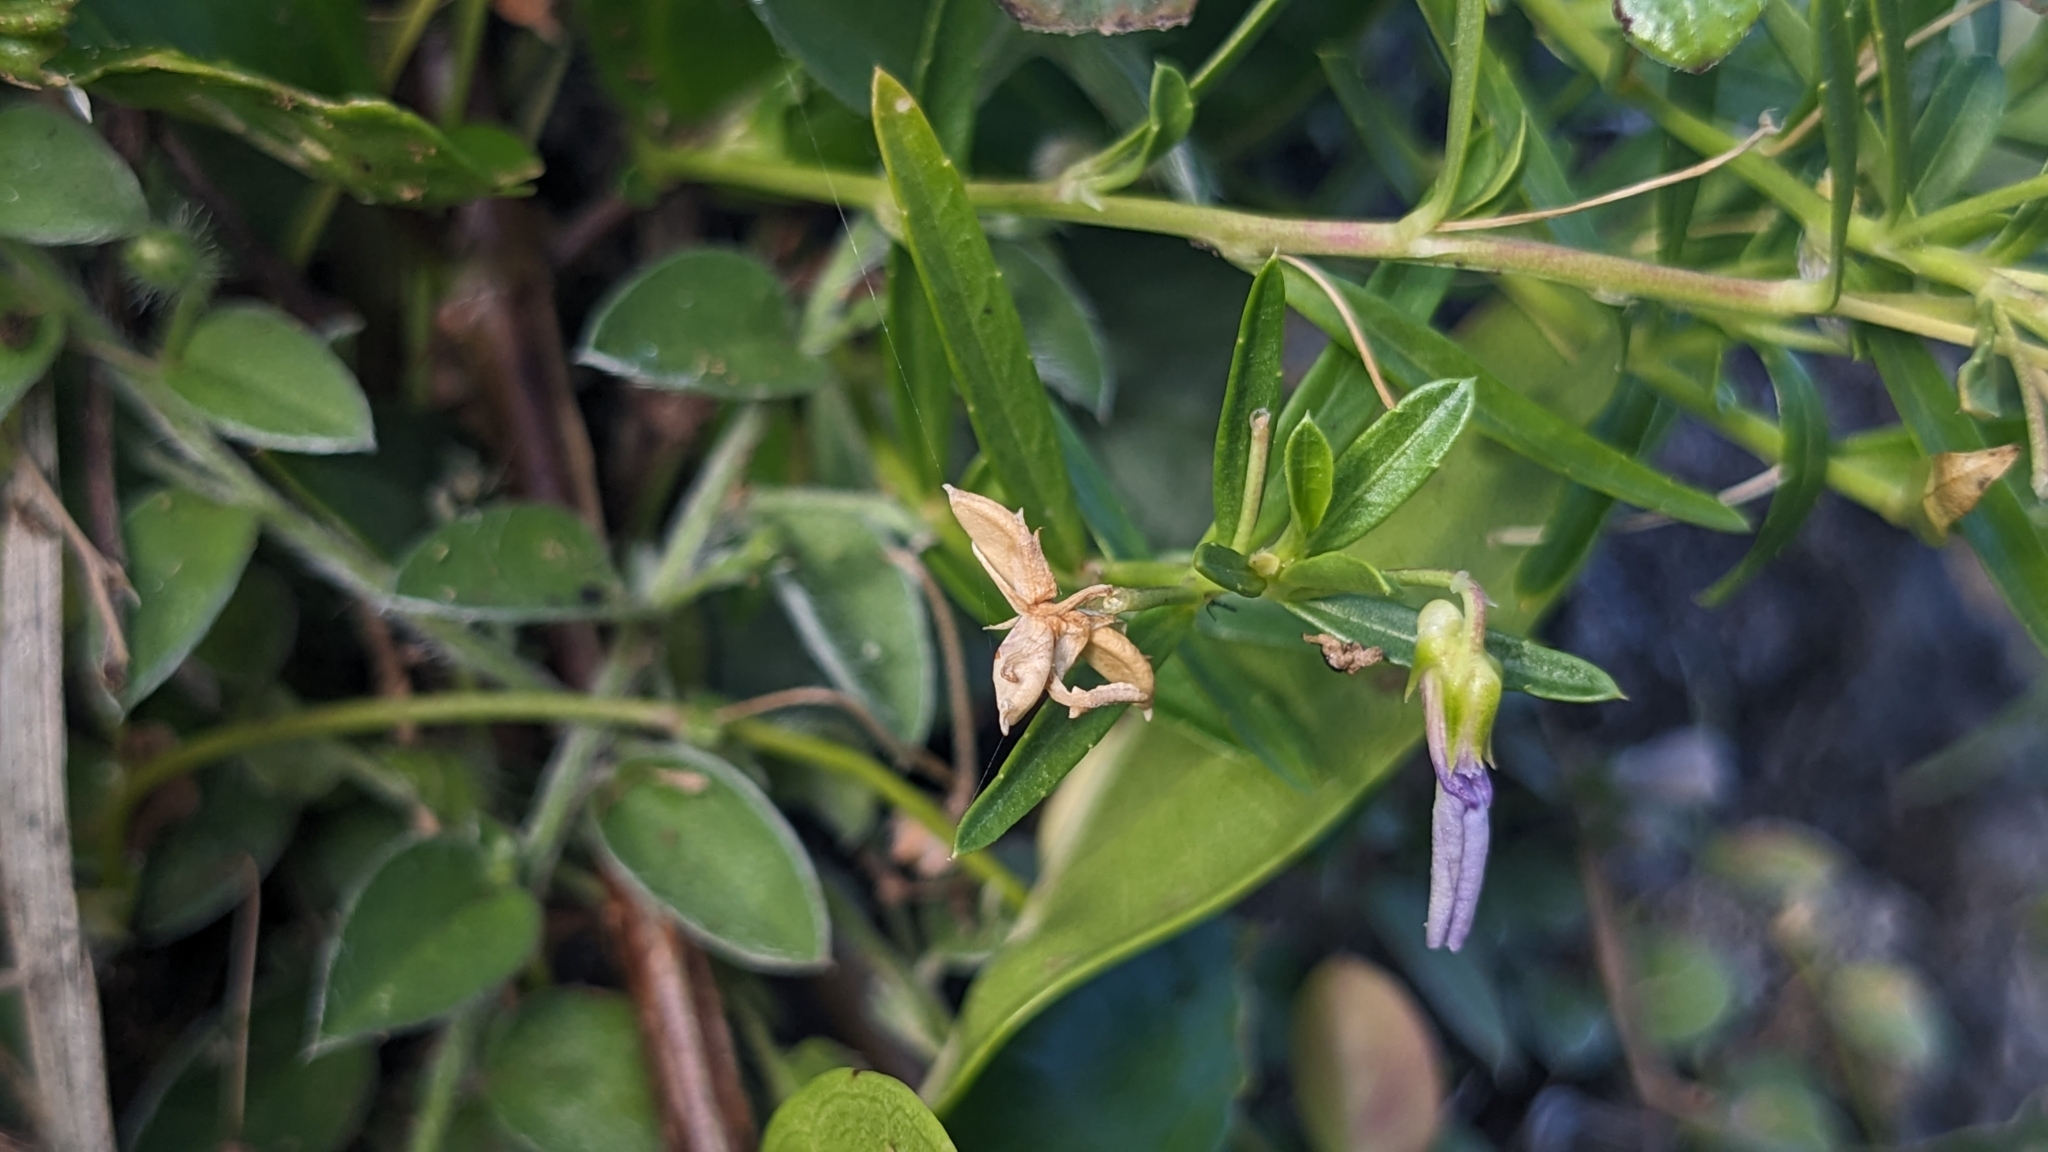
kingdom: Plantae
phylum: Tracheophyta
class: Magnoliopsida
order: Malpighiales
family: Violaceae
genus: Pigea
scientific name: Pigea enneasperma
